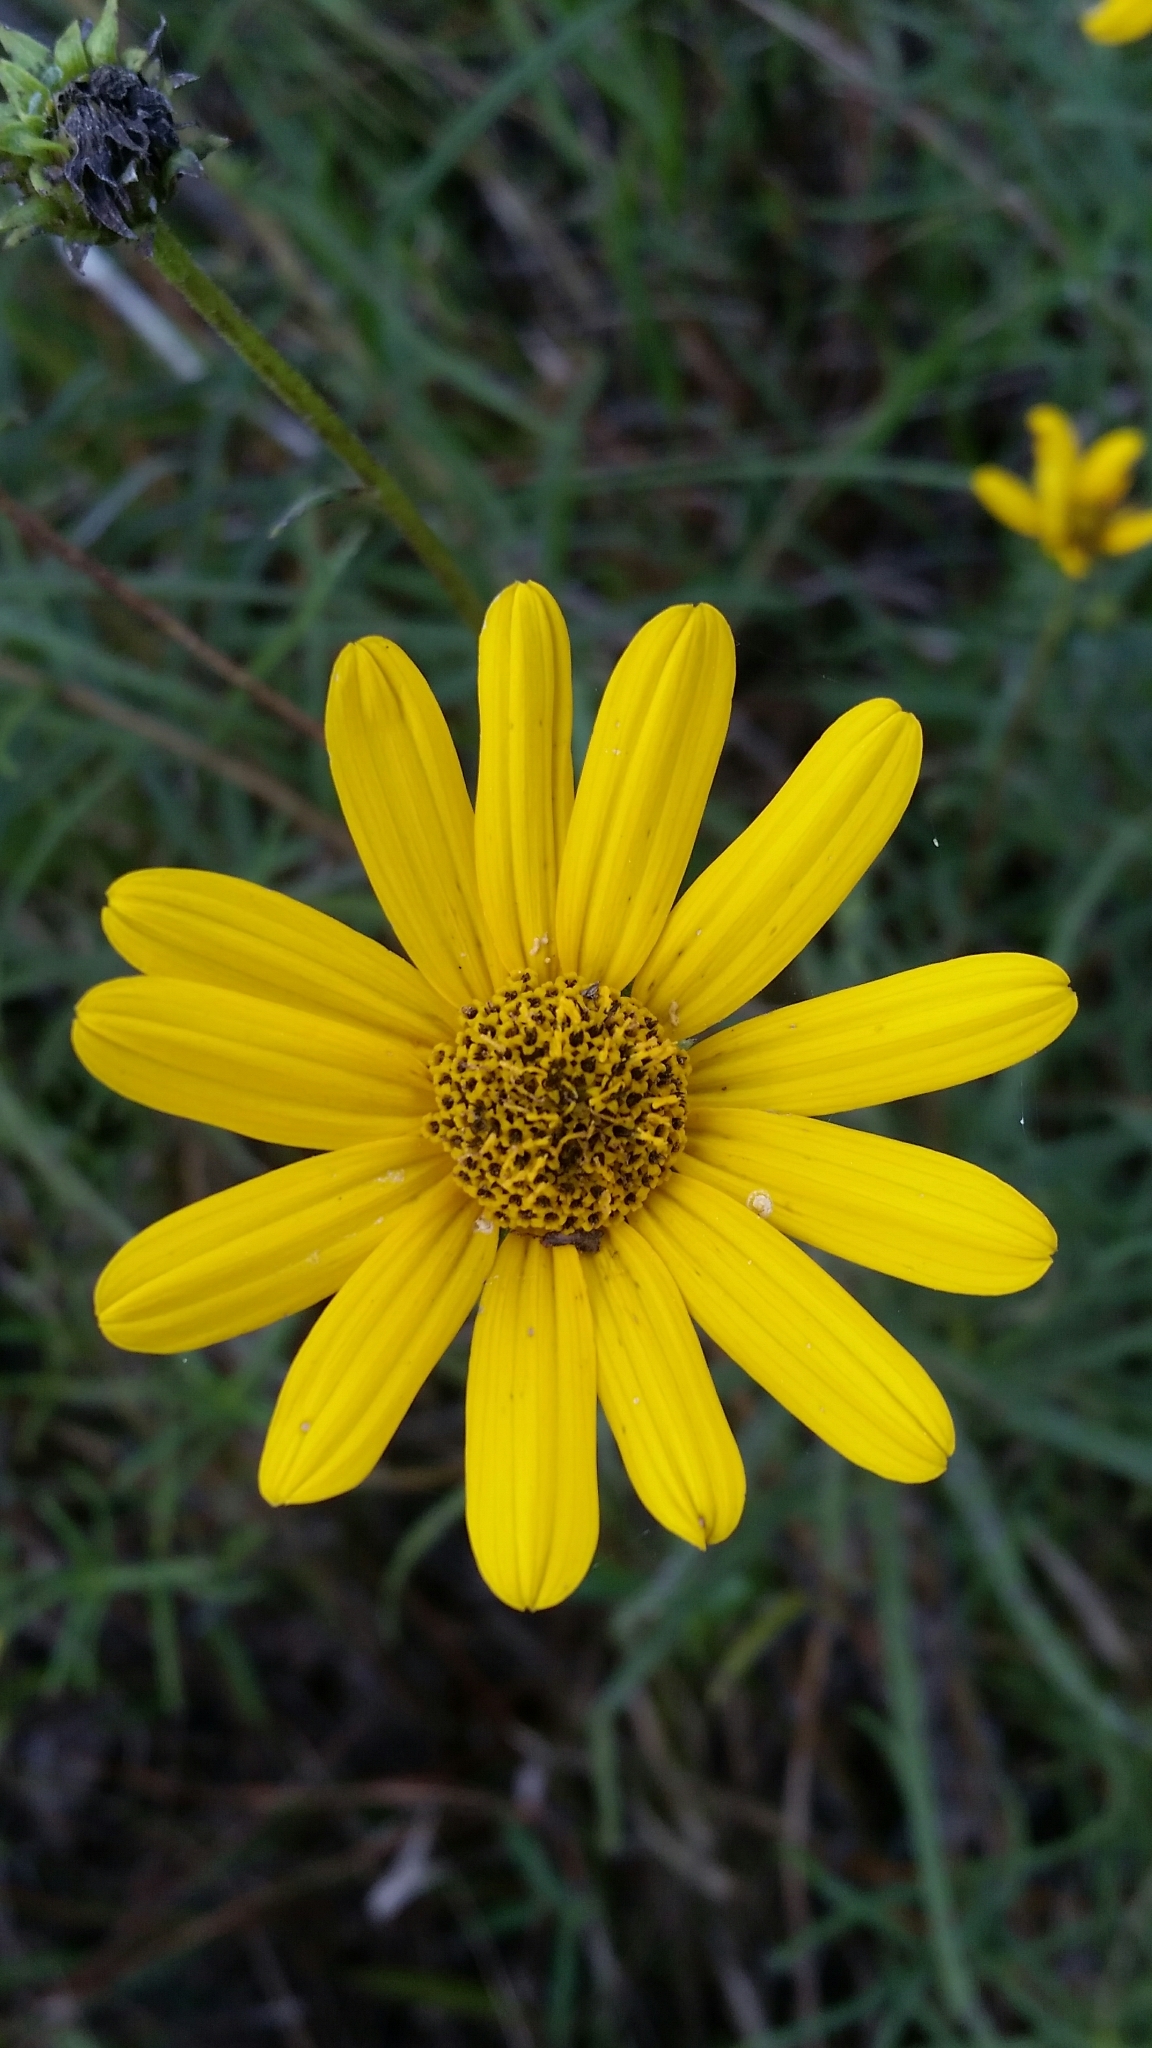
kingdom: Plantae
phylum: Tracheophyta
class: Magnoliopsida
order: Asterales
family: Asteraceae
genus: Helianthus
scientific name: Helianthus angustifolius
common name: Swamp sunflower
